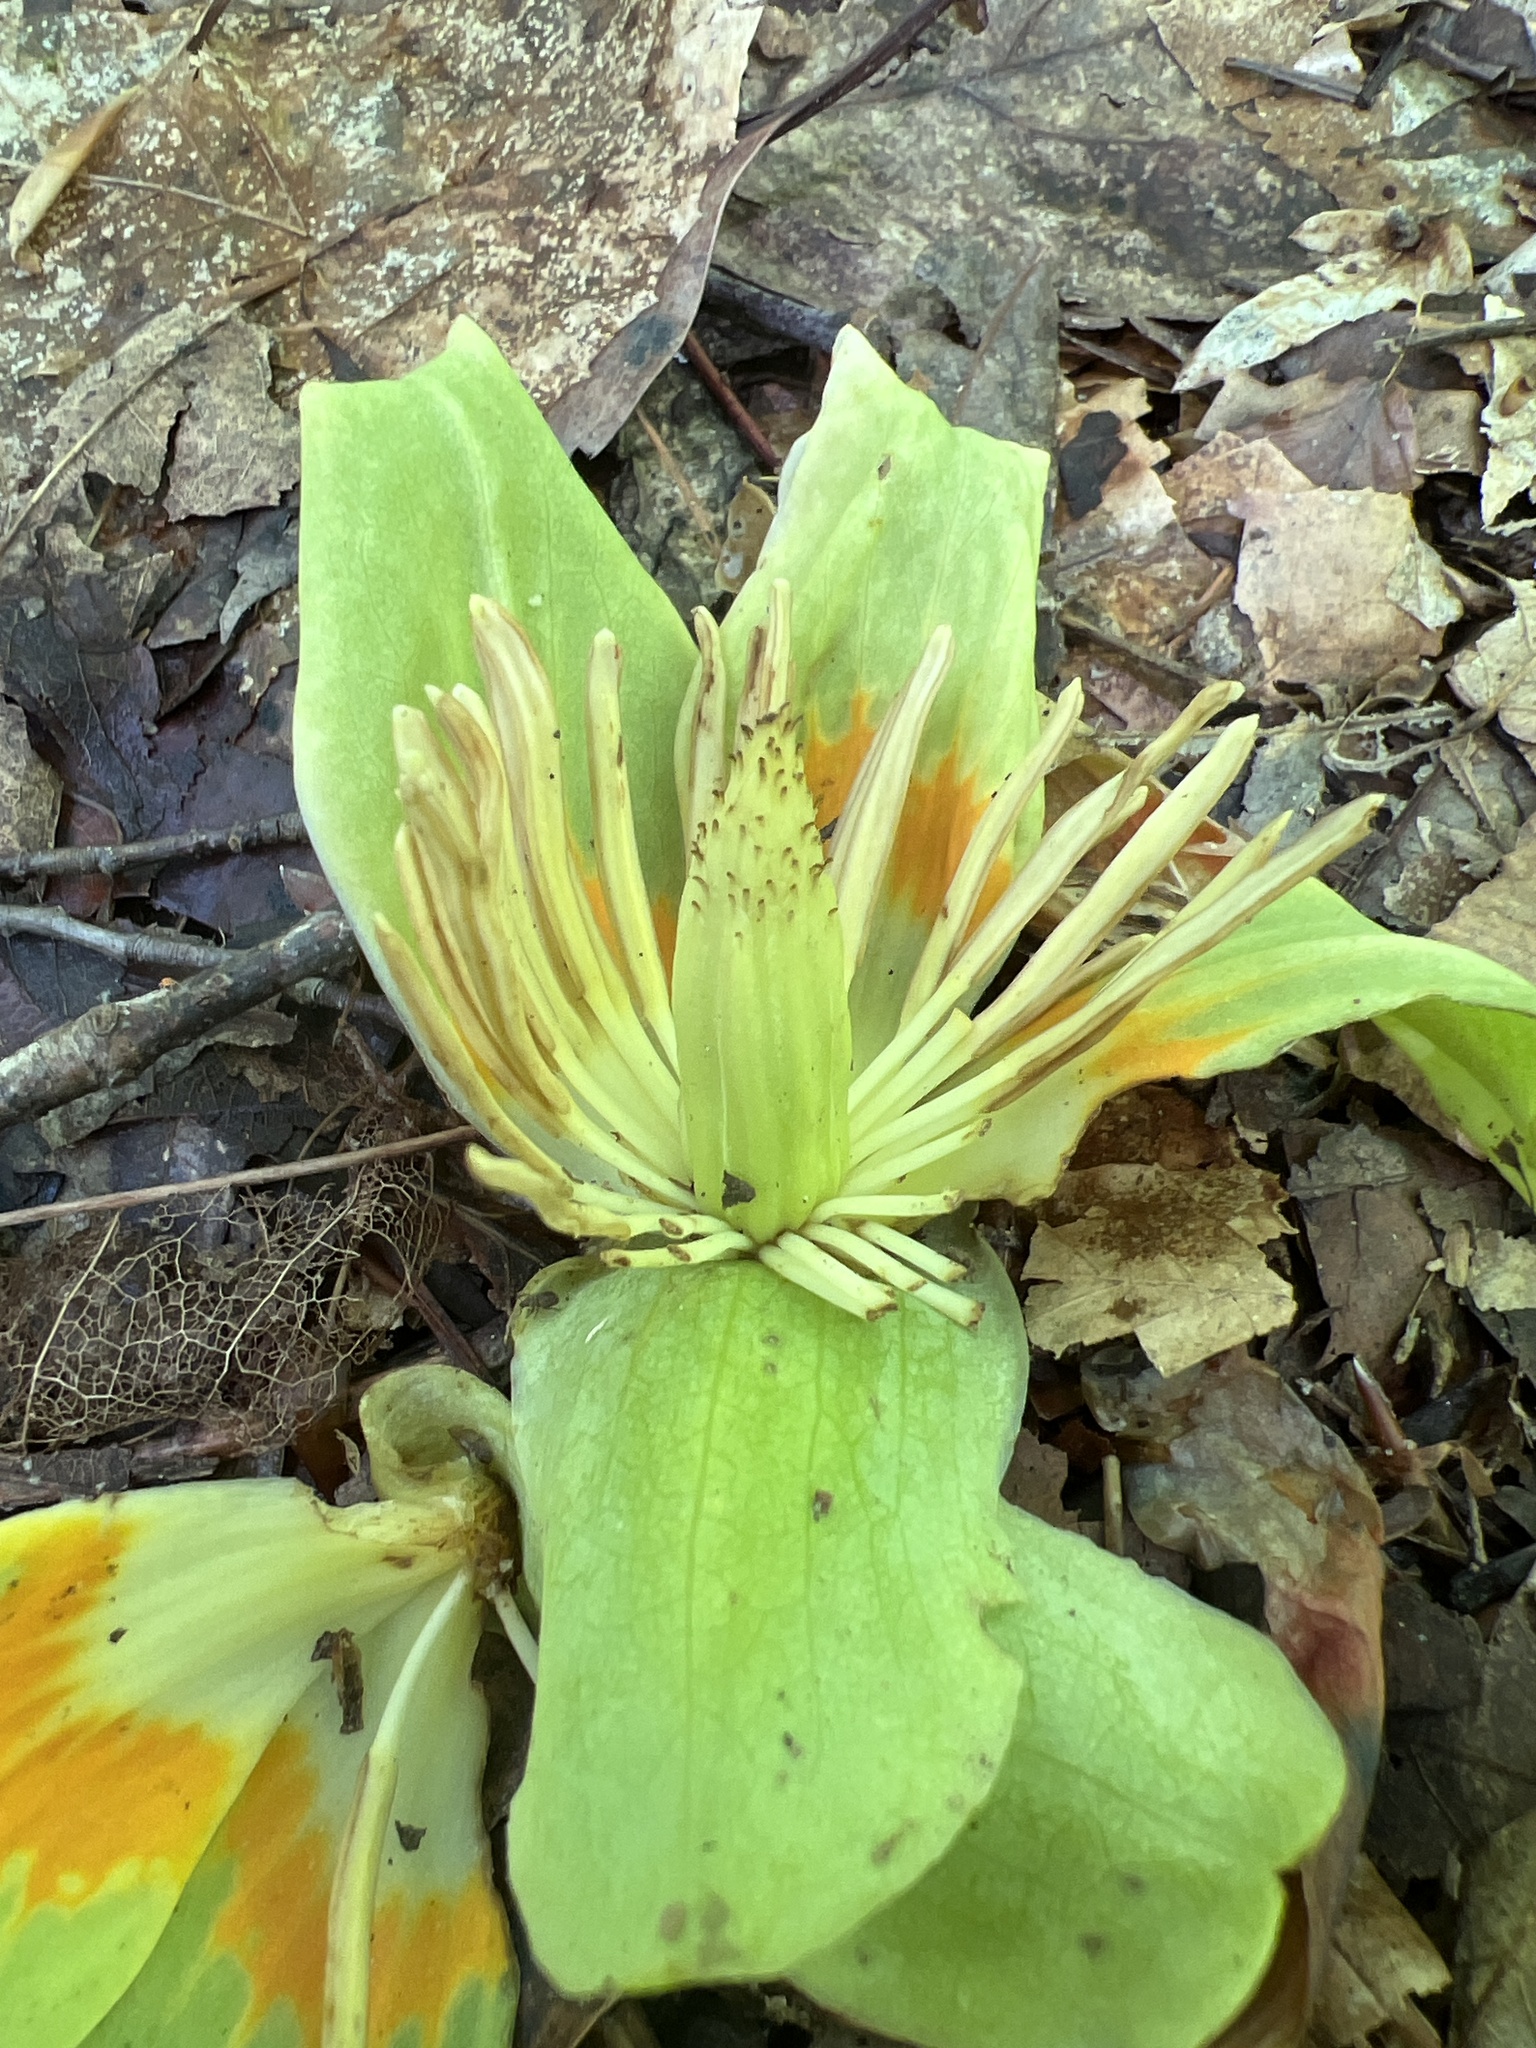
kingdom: Plantae
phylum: Tracheophyta
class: Magnoliopsida
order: Magnoliales
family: Magnoliaceae
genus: Liriodendron
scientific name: Liriodendron tulipifera
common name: Tulip tree
